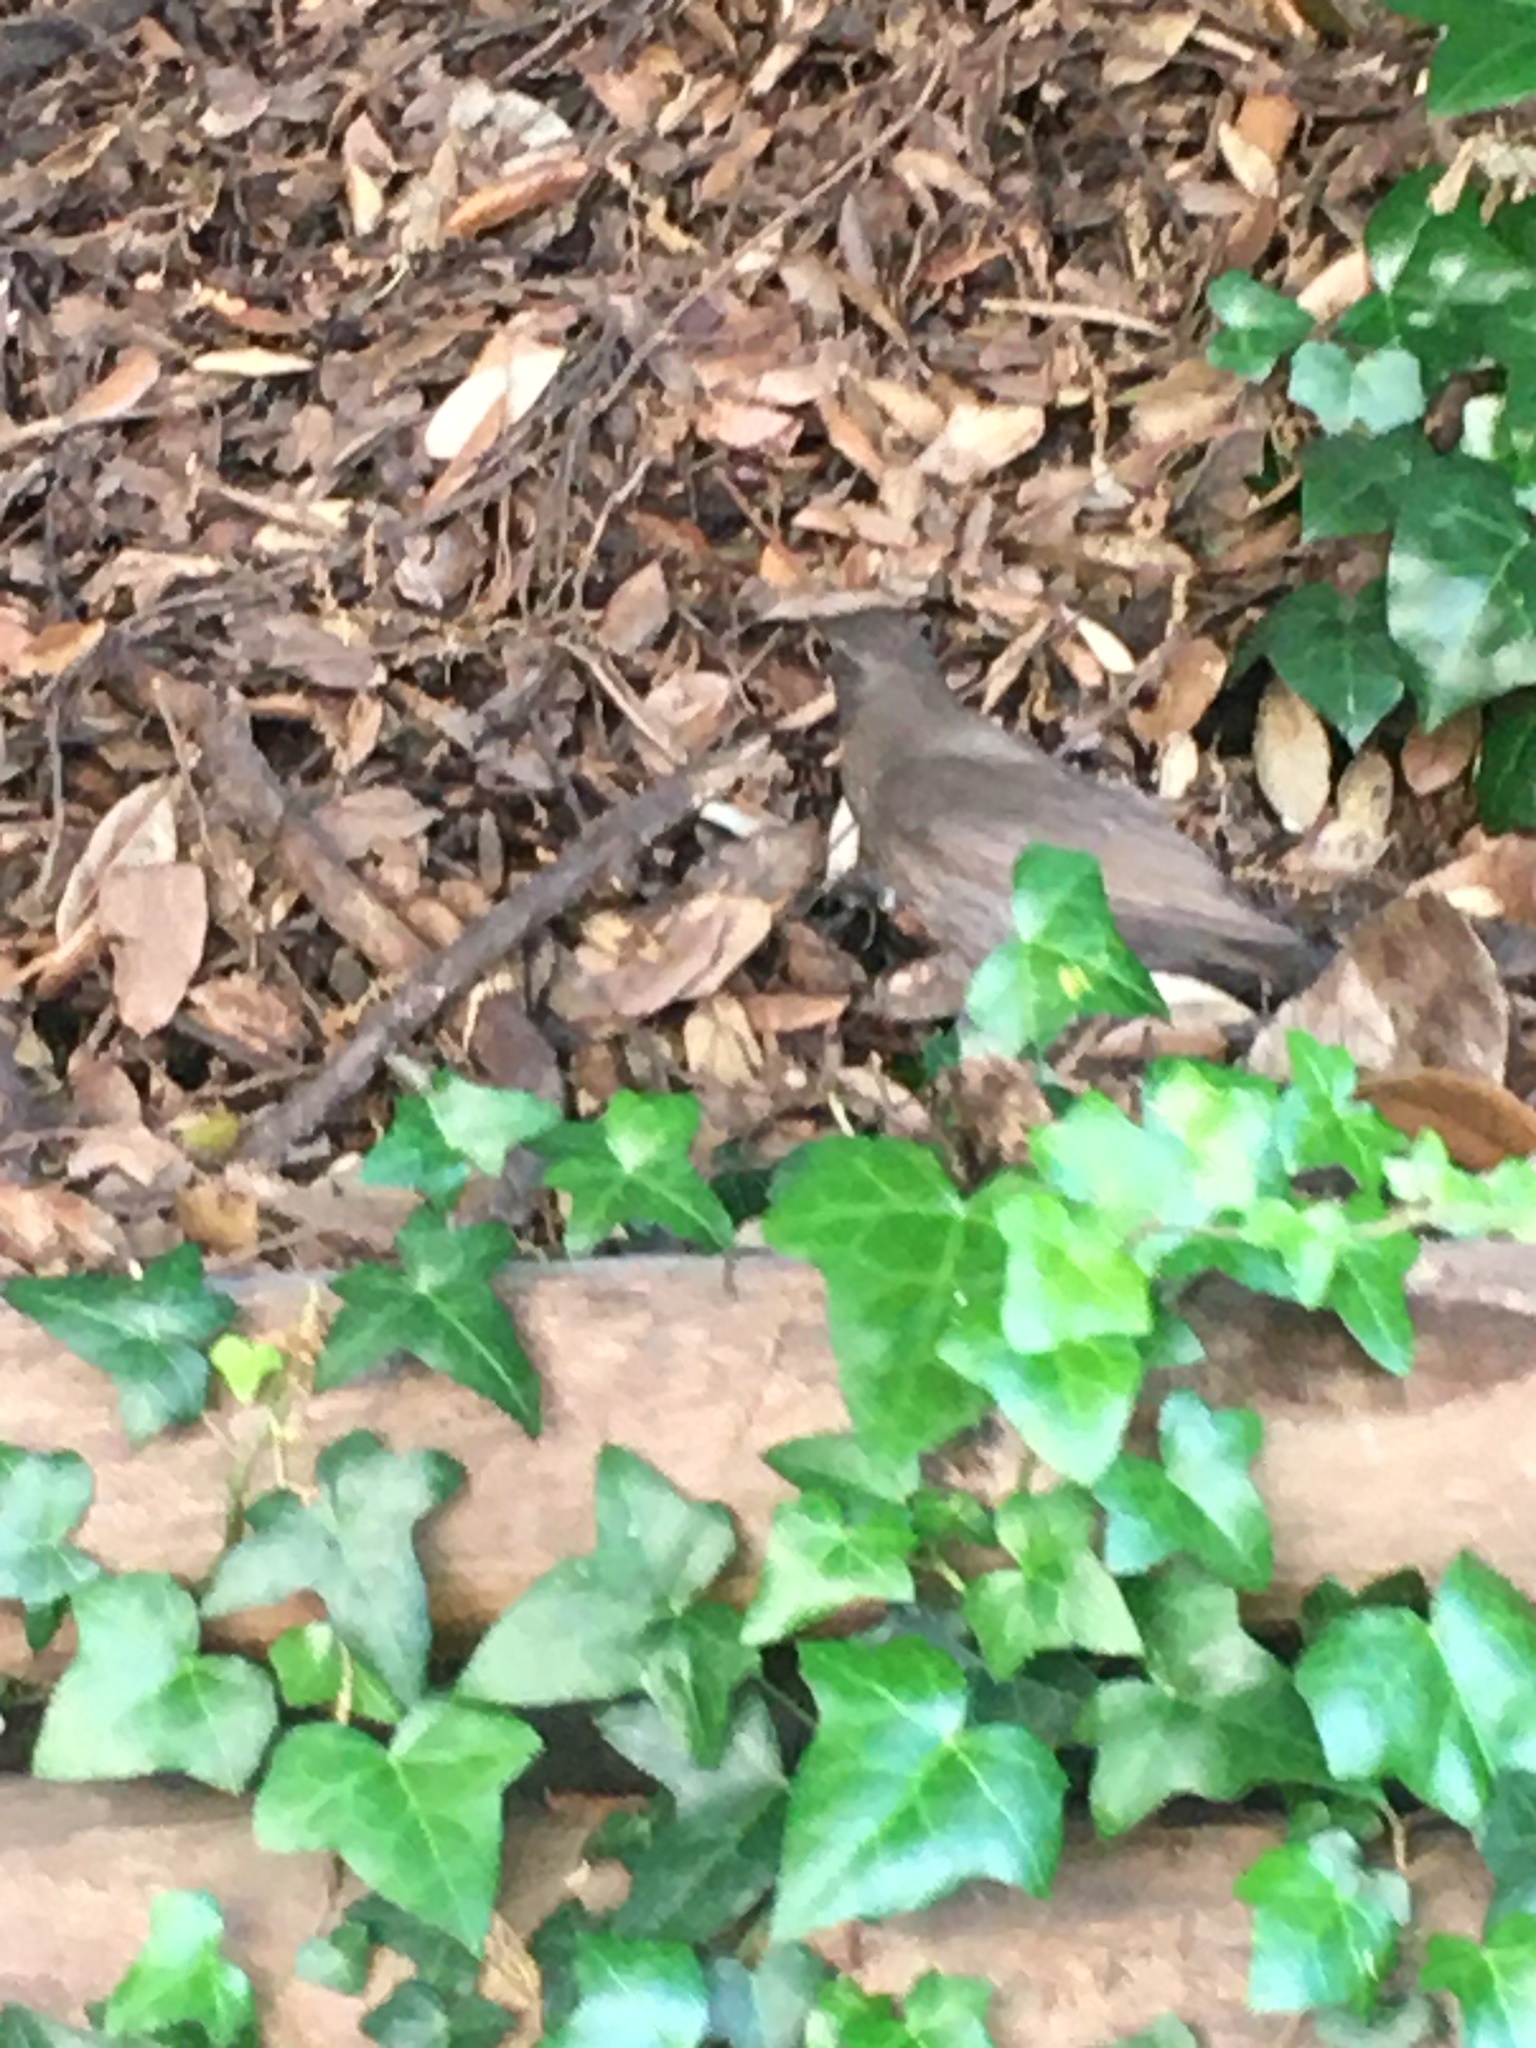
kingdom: Animalia
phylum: Chordata
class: Aves
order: Passeriformes
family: Turdidae
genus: Turdus
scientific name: Turdus merula
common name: Common blackbird
